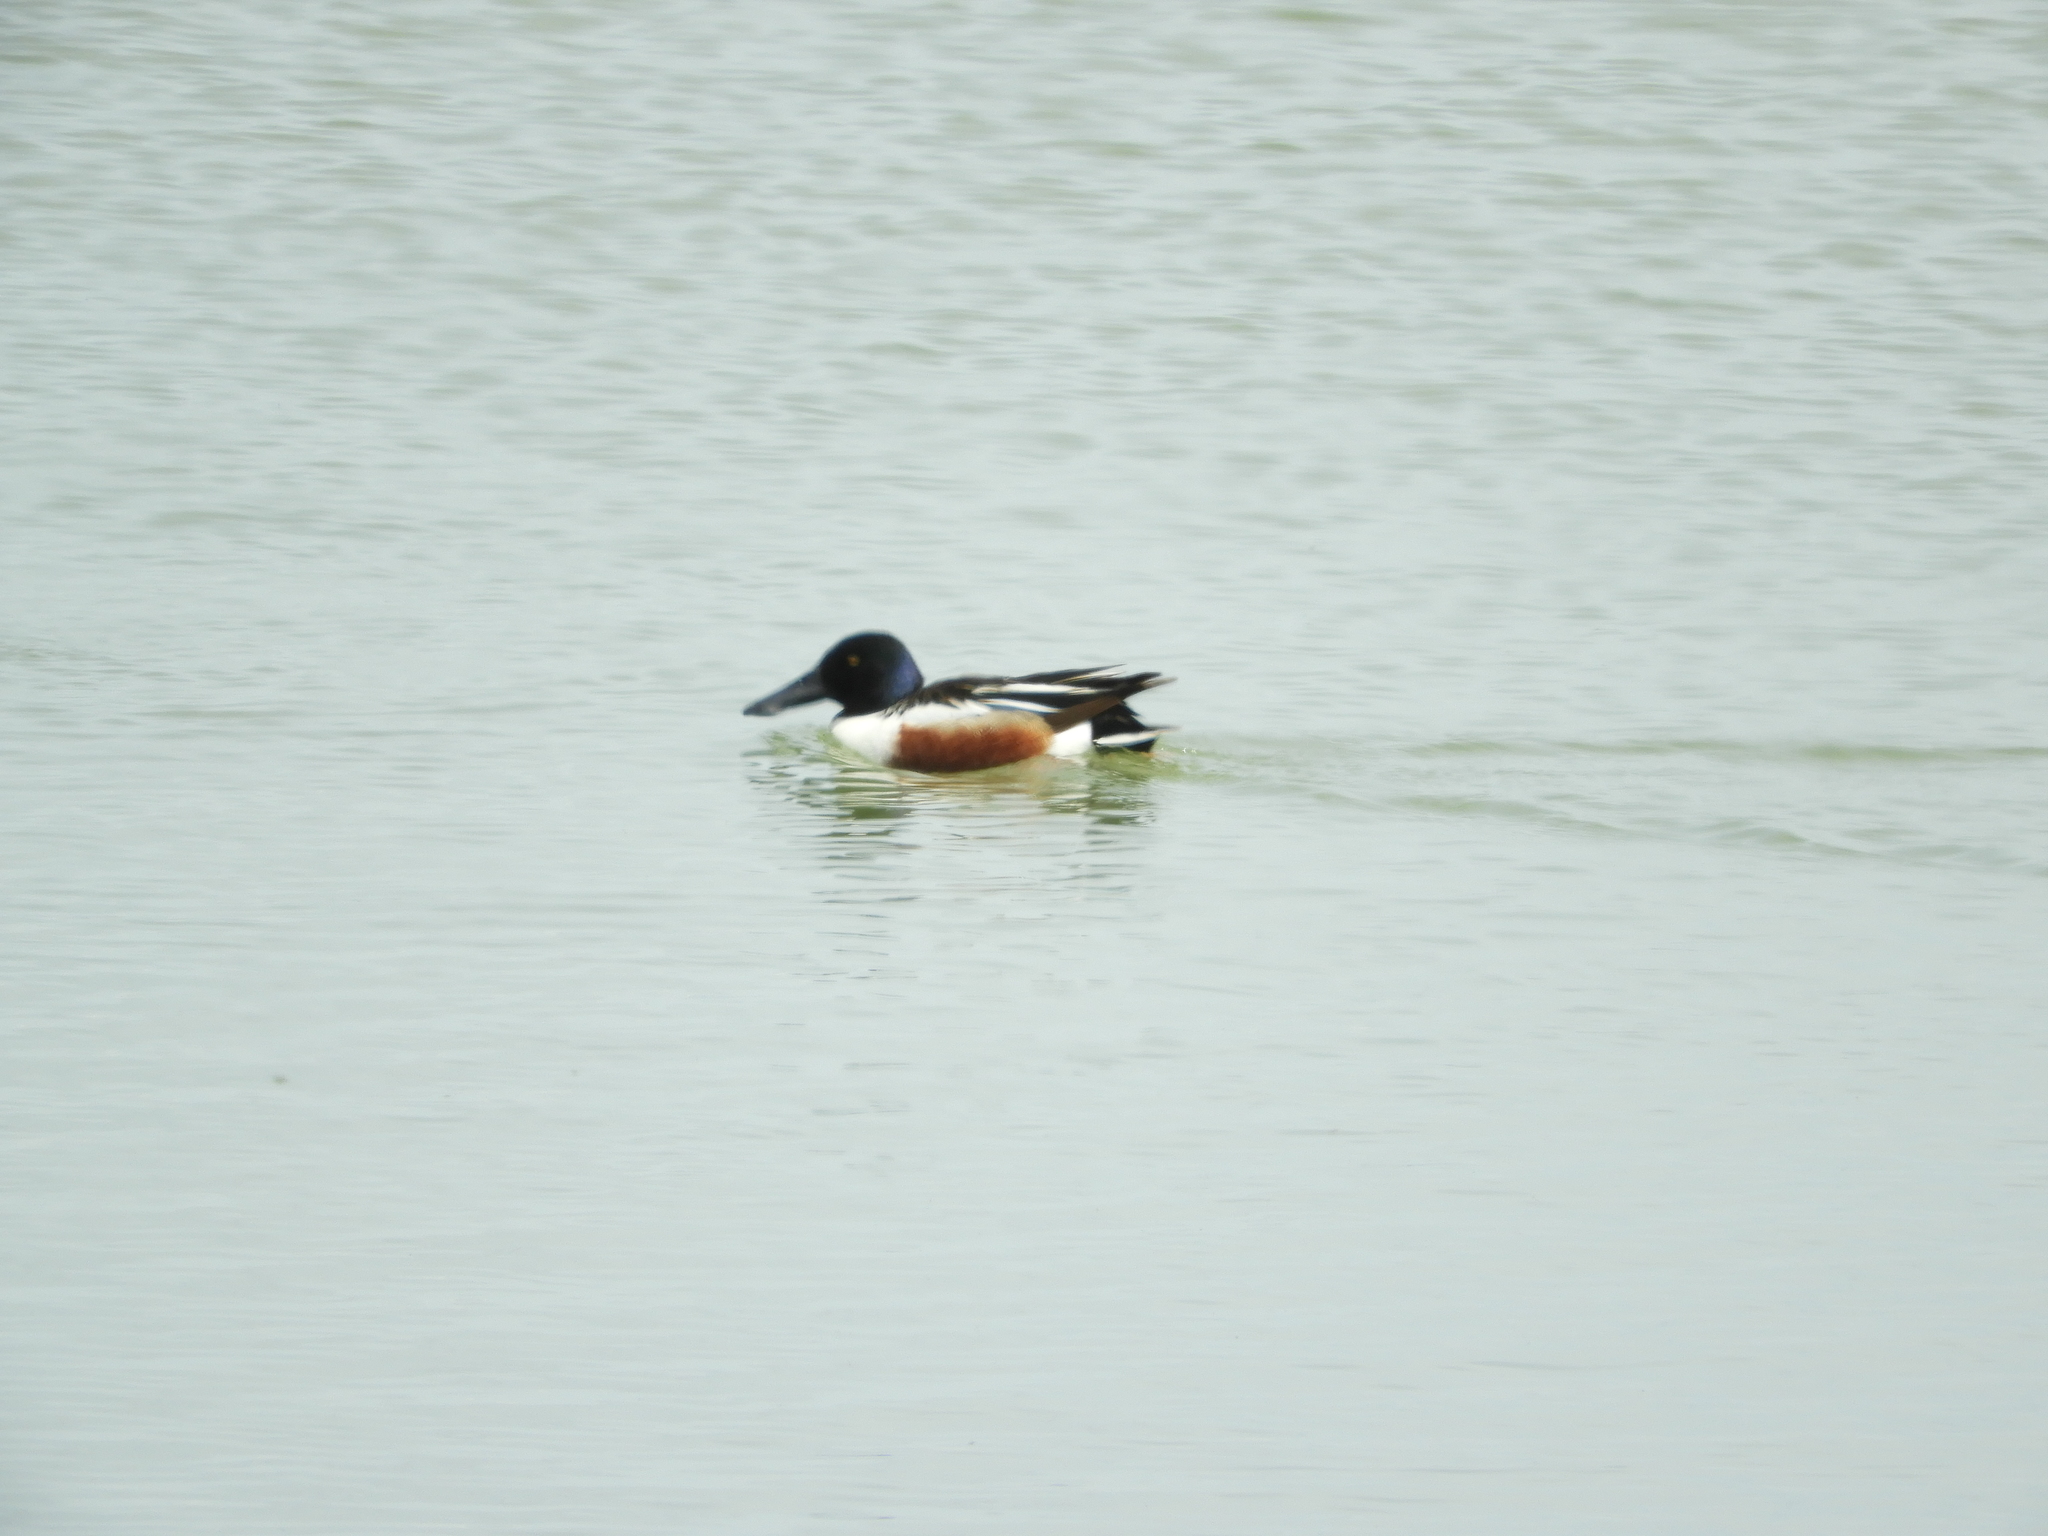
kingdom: Animalia
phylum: Chordata
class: Aves
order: Anseriformes
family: Anatidae
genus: Spatula
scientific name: Spatula clypeata
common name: Northern shoveler
